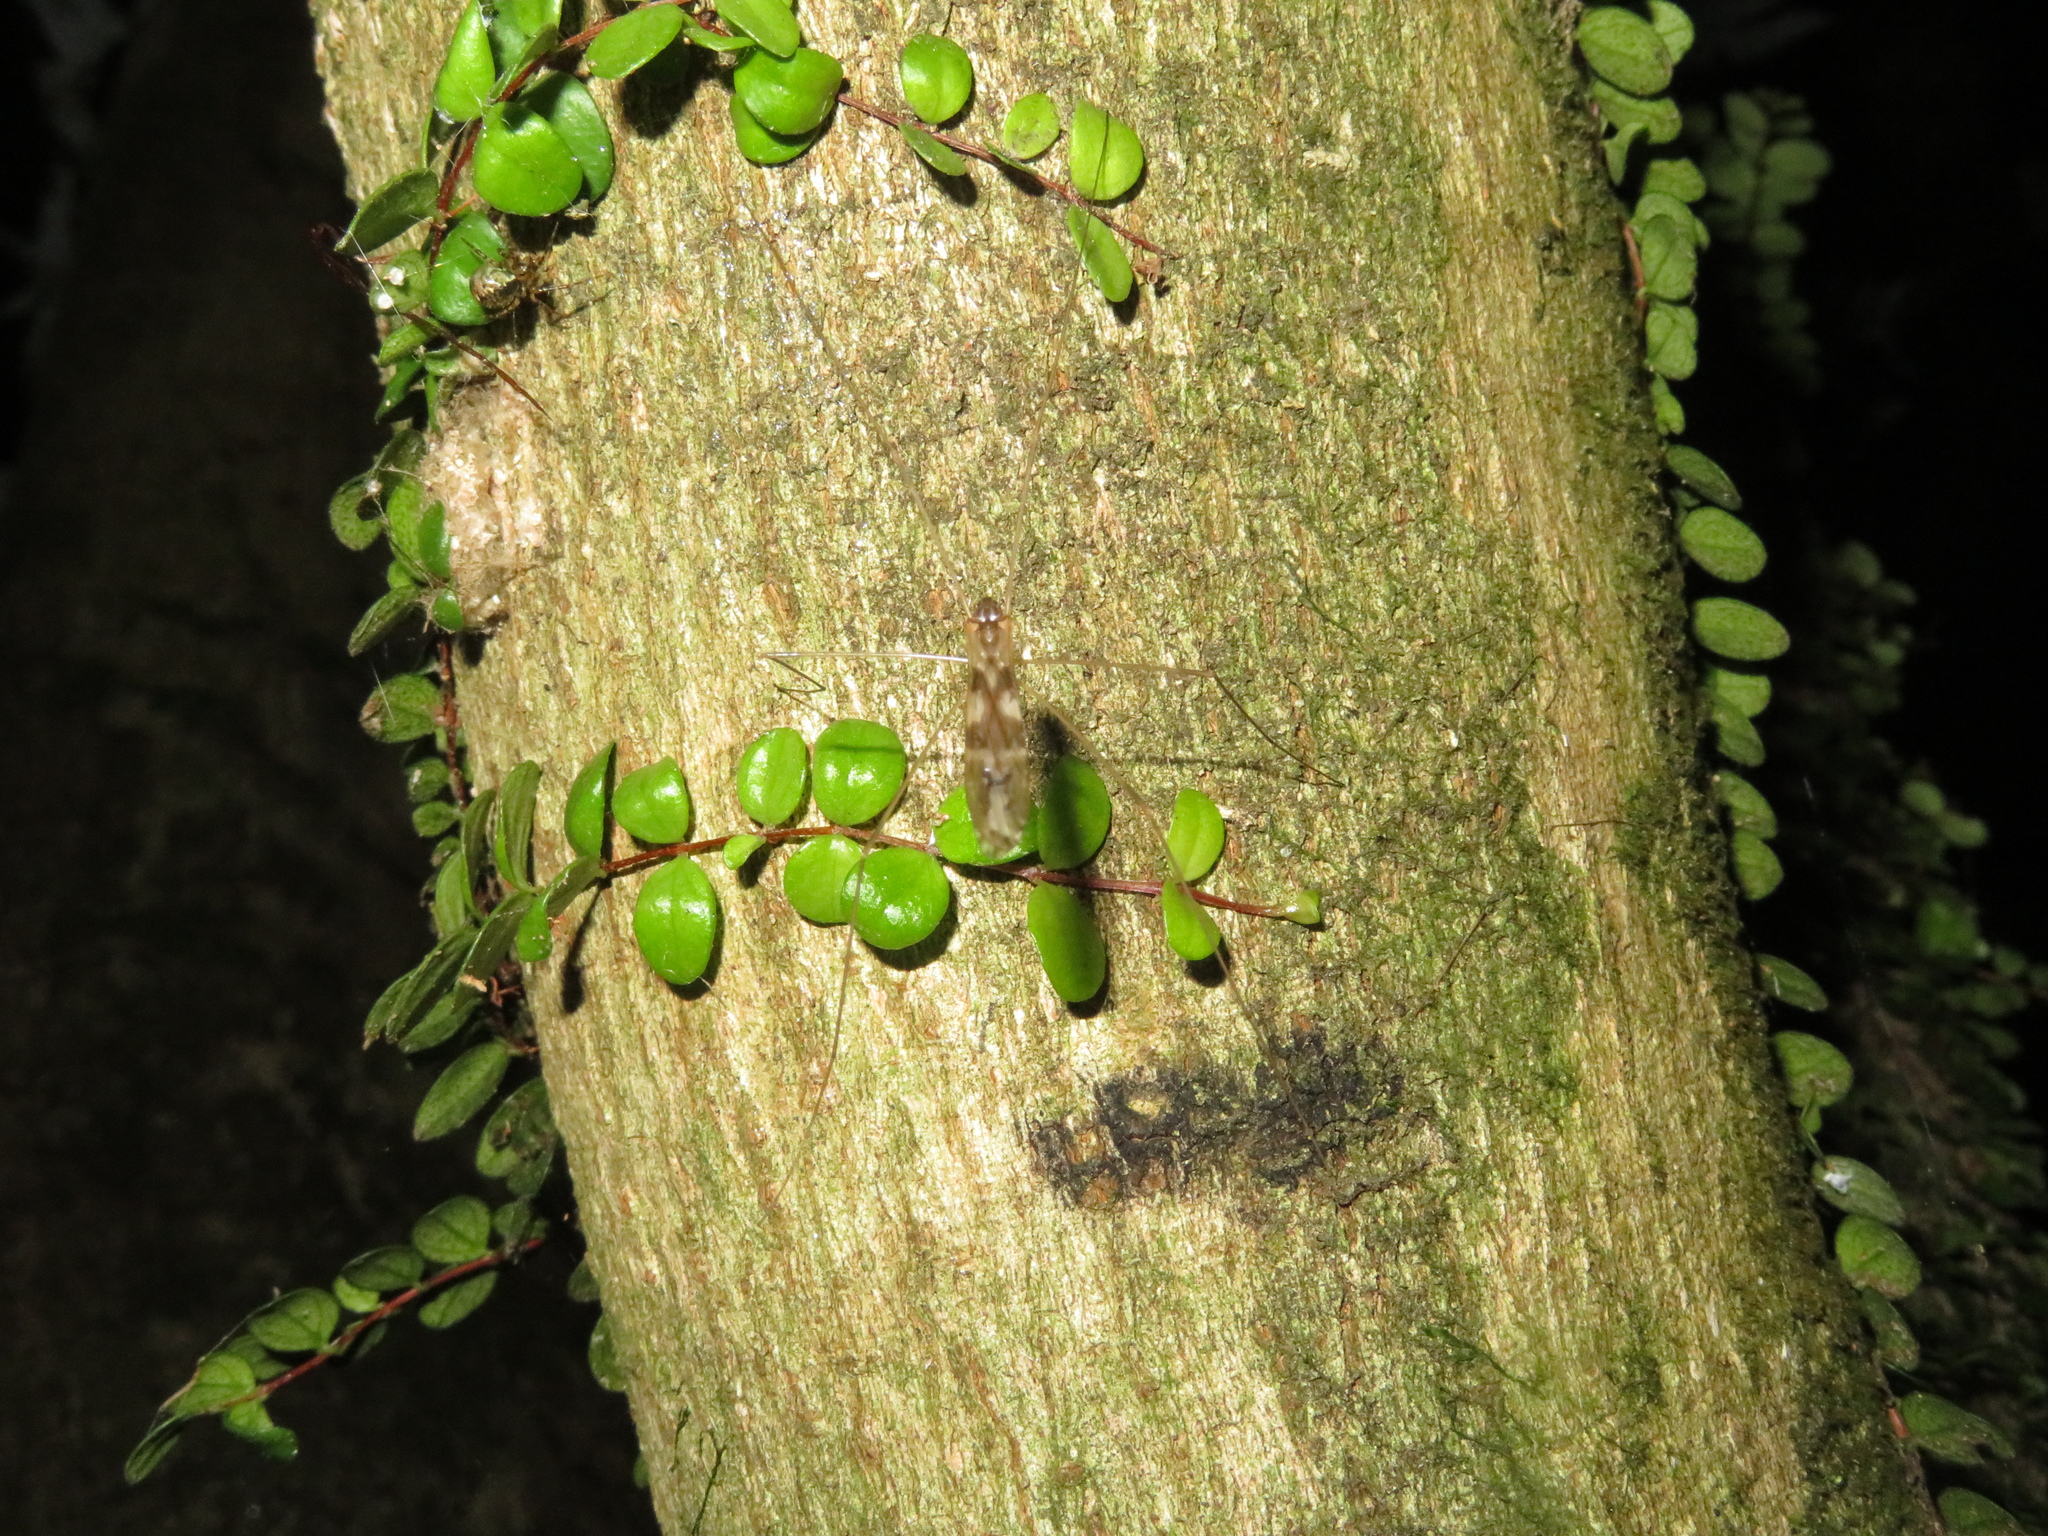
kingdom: Animalia
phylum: Arthropoda
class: Insecta
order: Diptera
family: Limoniidae
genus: Discobola
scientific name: Discobola dohrni
